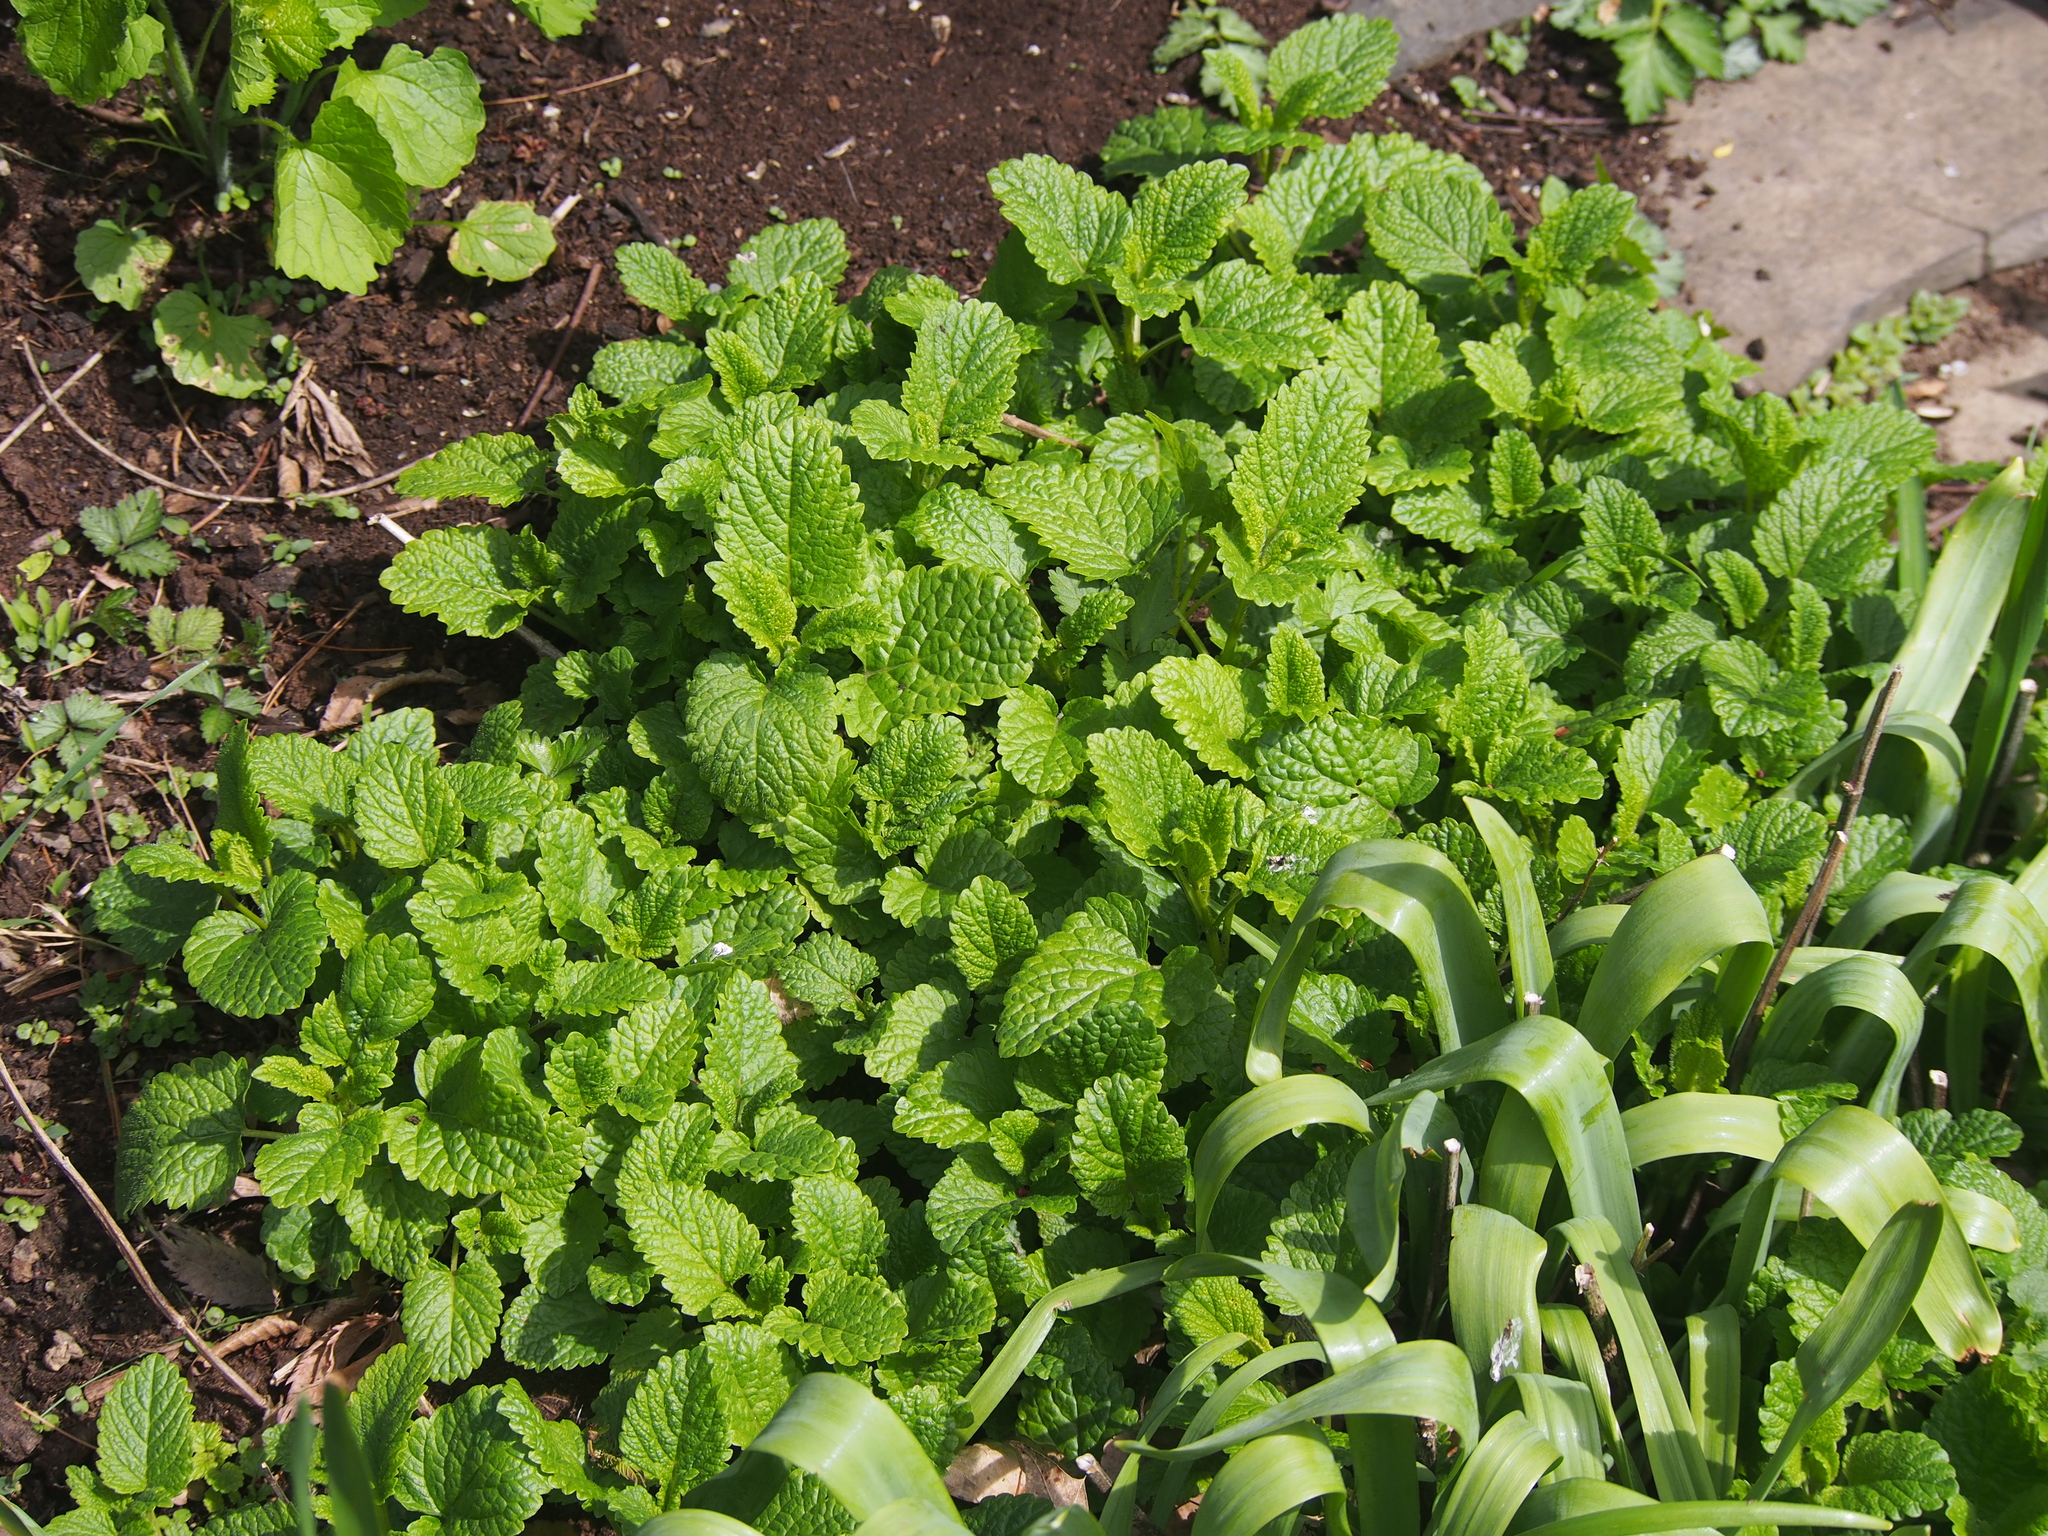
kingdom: Plantae
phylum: Tracheophyta
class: Magnoliopsida
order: Lamiales
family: Lamiaceae
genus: Melissa
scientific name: Melissa officinalis
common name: Balm
